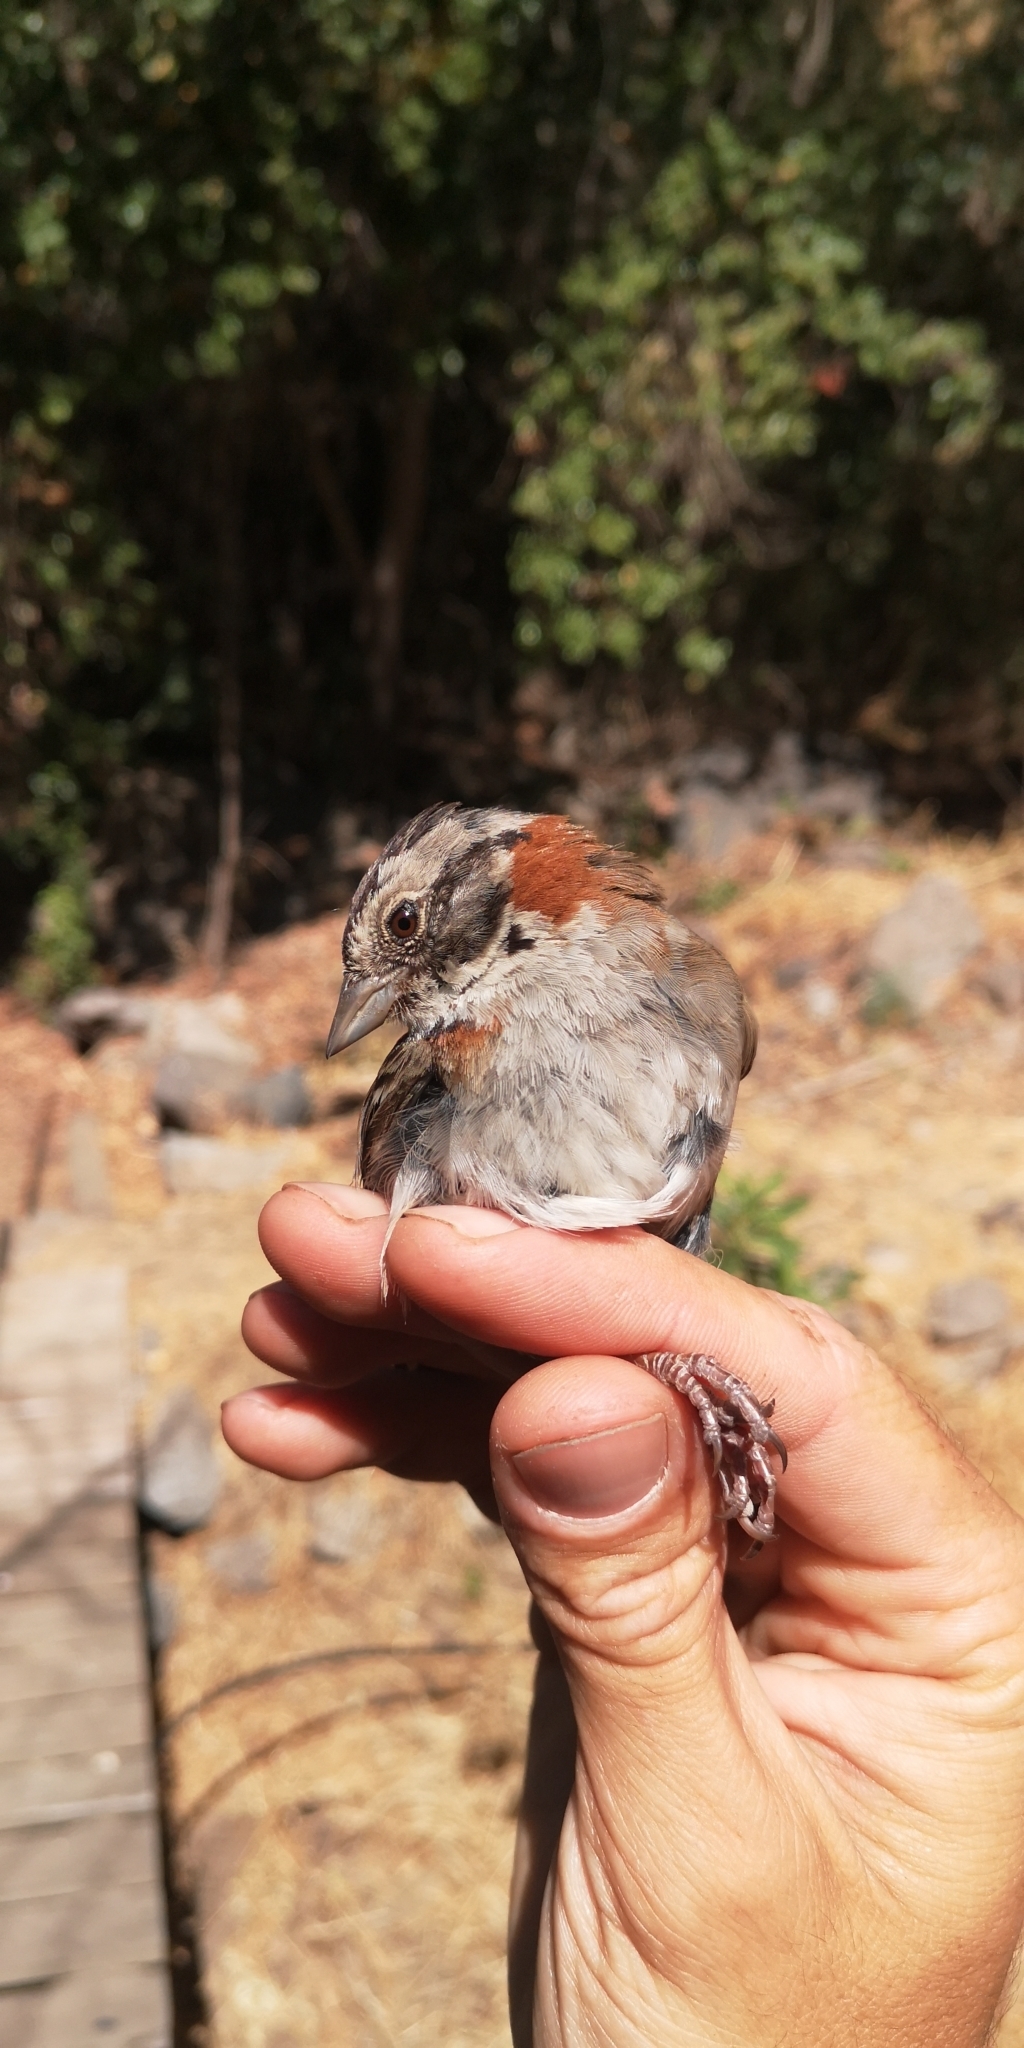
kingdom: Animalia
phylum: Chordata
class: Aves
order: Passeriformes
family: Passerellidae
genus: Zonotrichia
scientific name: Zonotrichia capensis
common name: Rufous-collared sparrow
